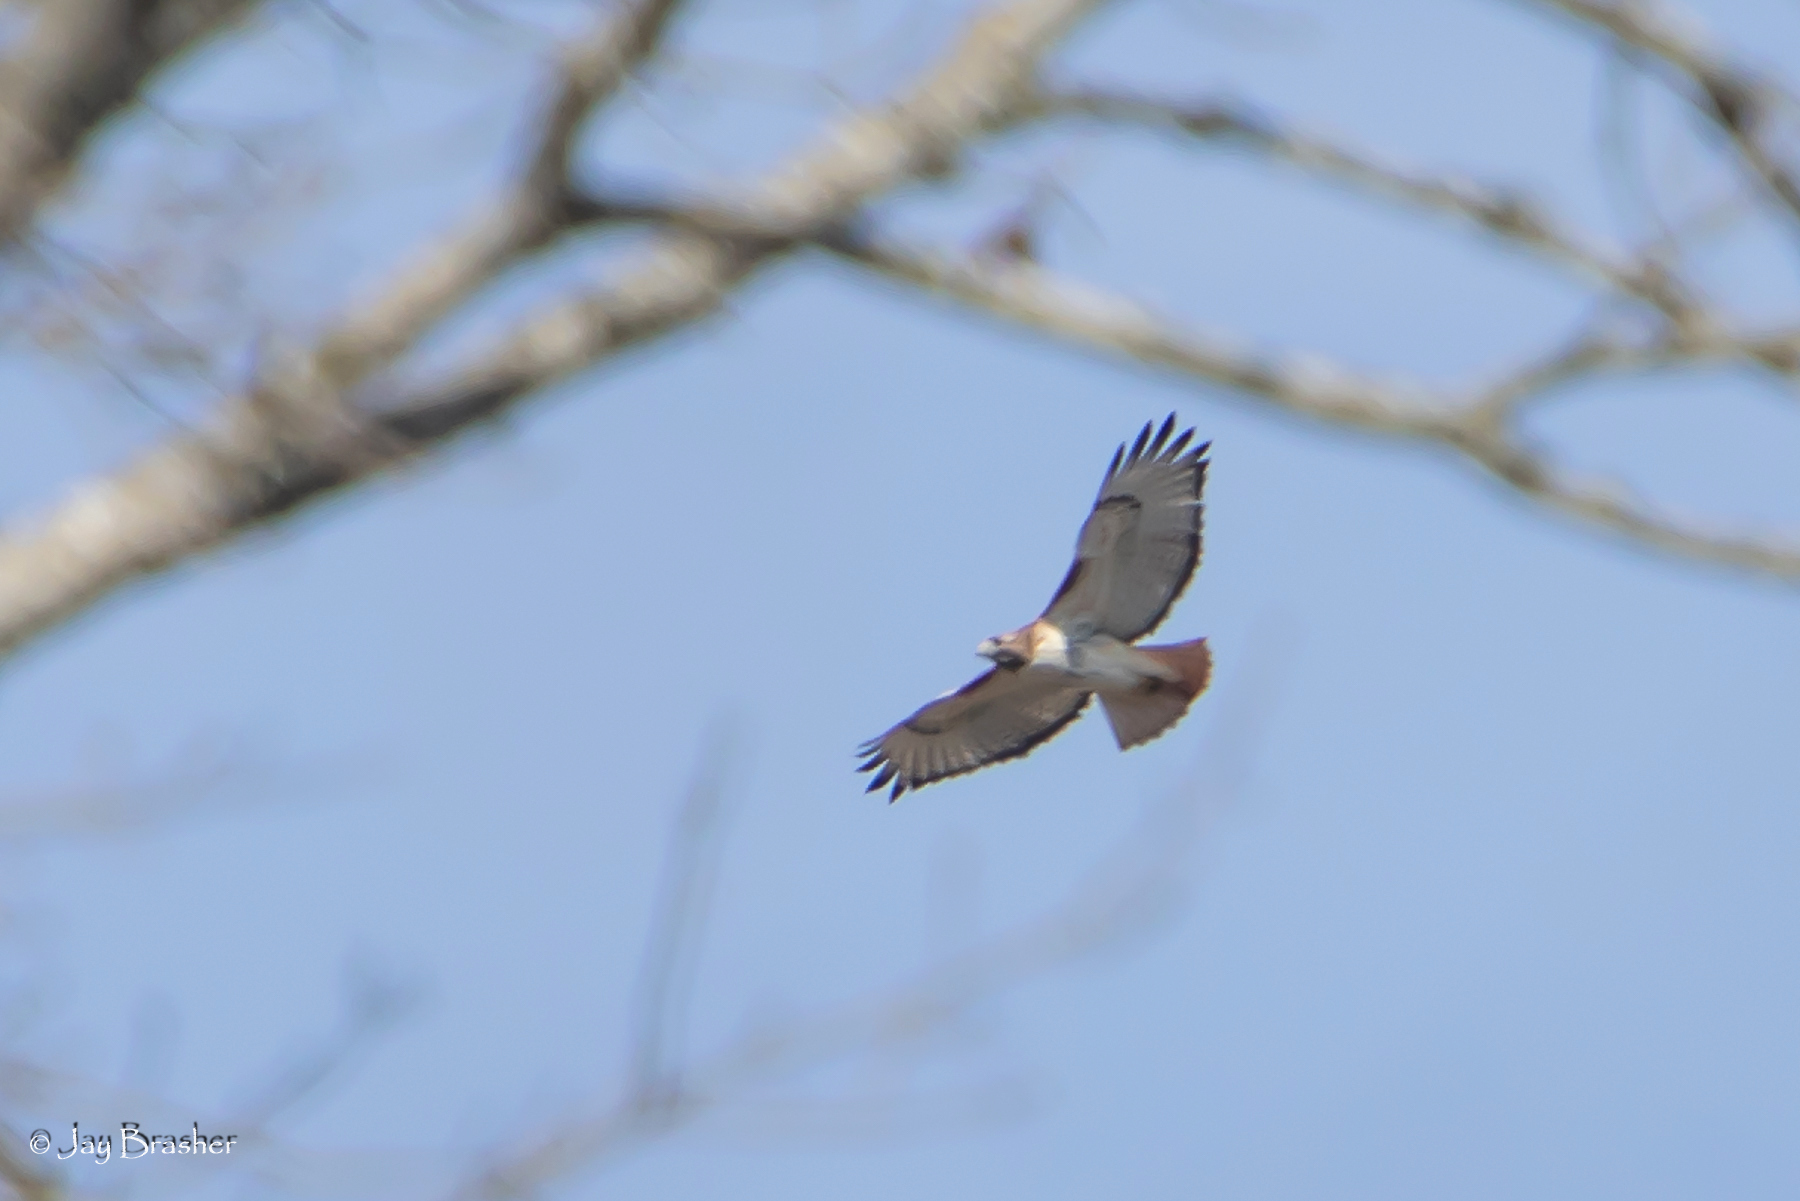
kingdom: Animalia
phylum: Chordata
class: Aves
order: Accipitriformes
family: Accipitridae
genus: Buteo
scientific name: Buteo jamaicensis
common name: Red-tailed hawk
